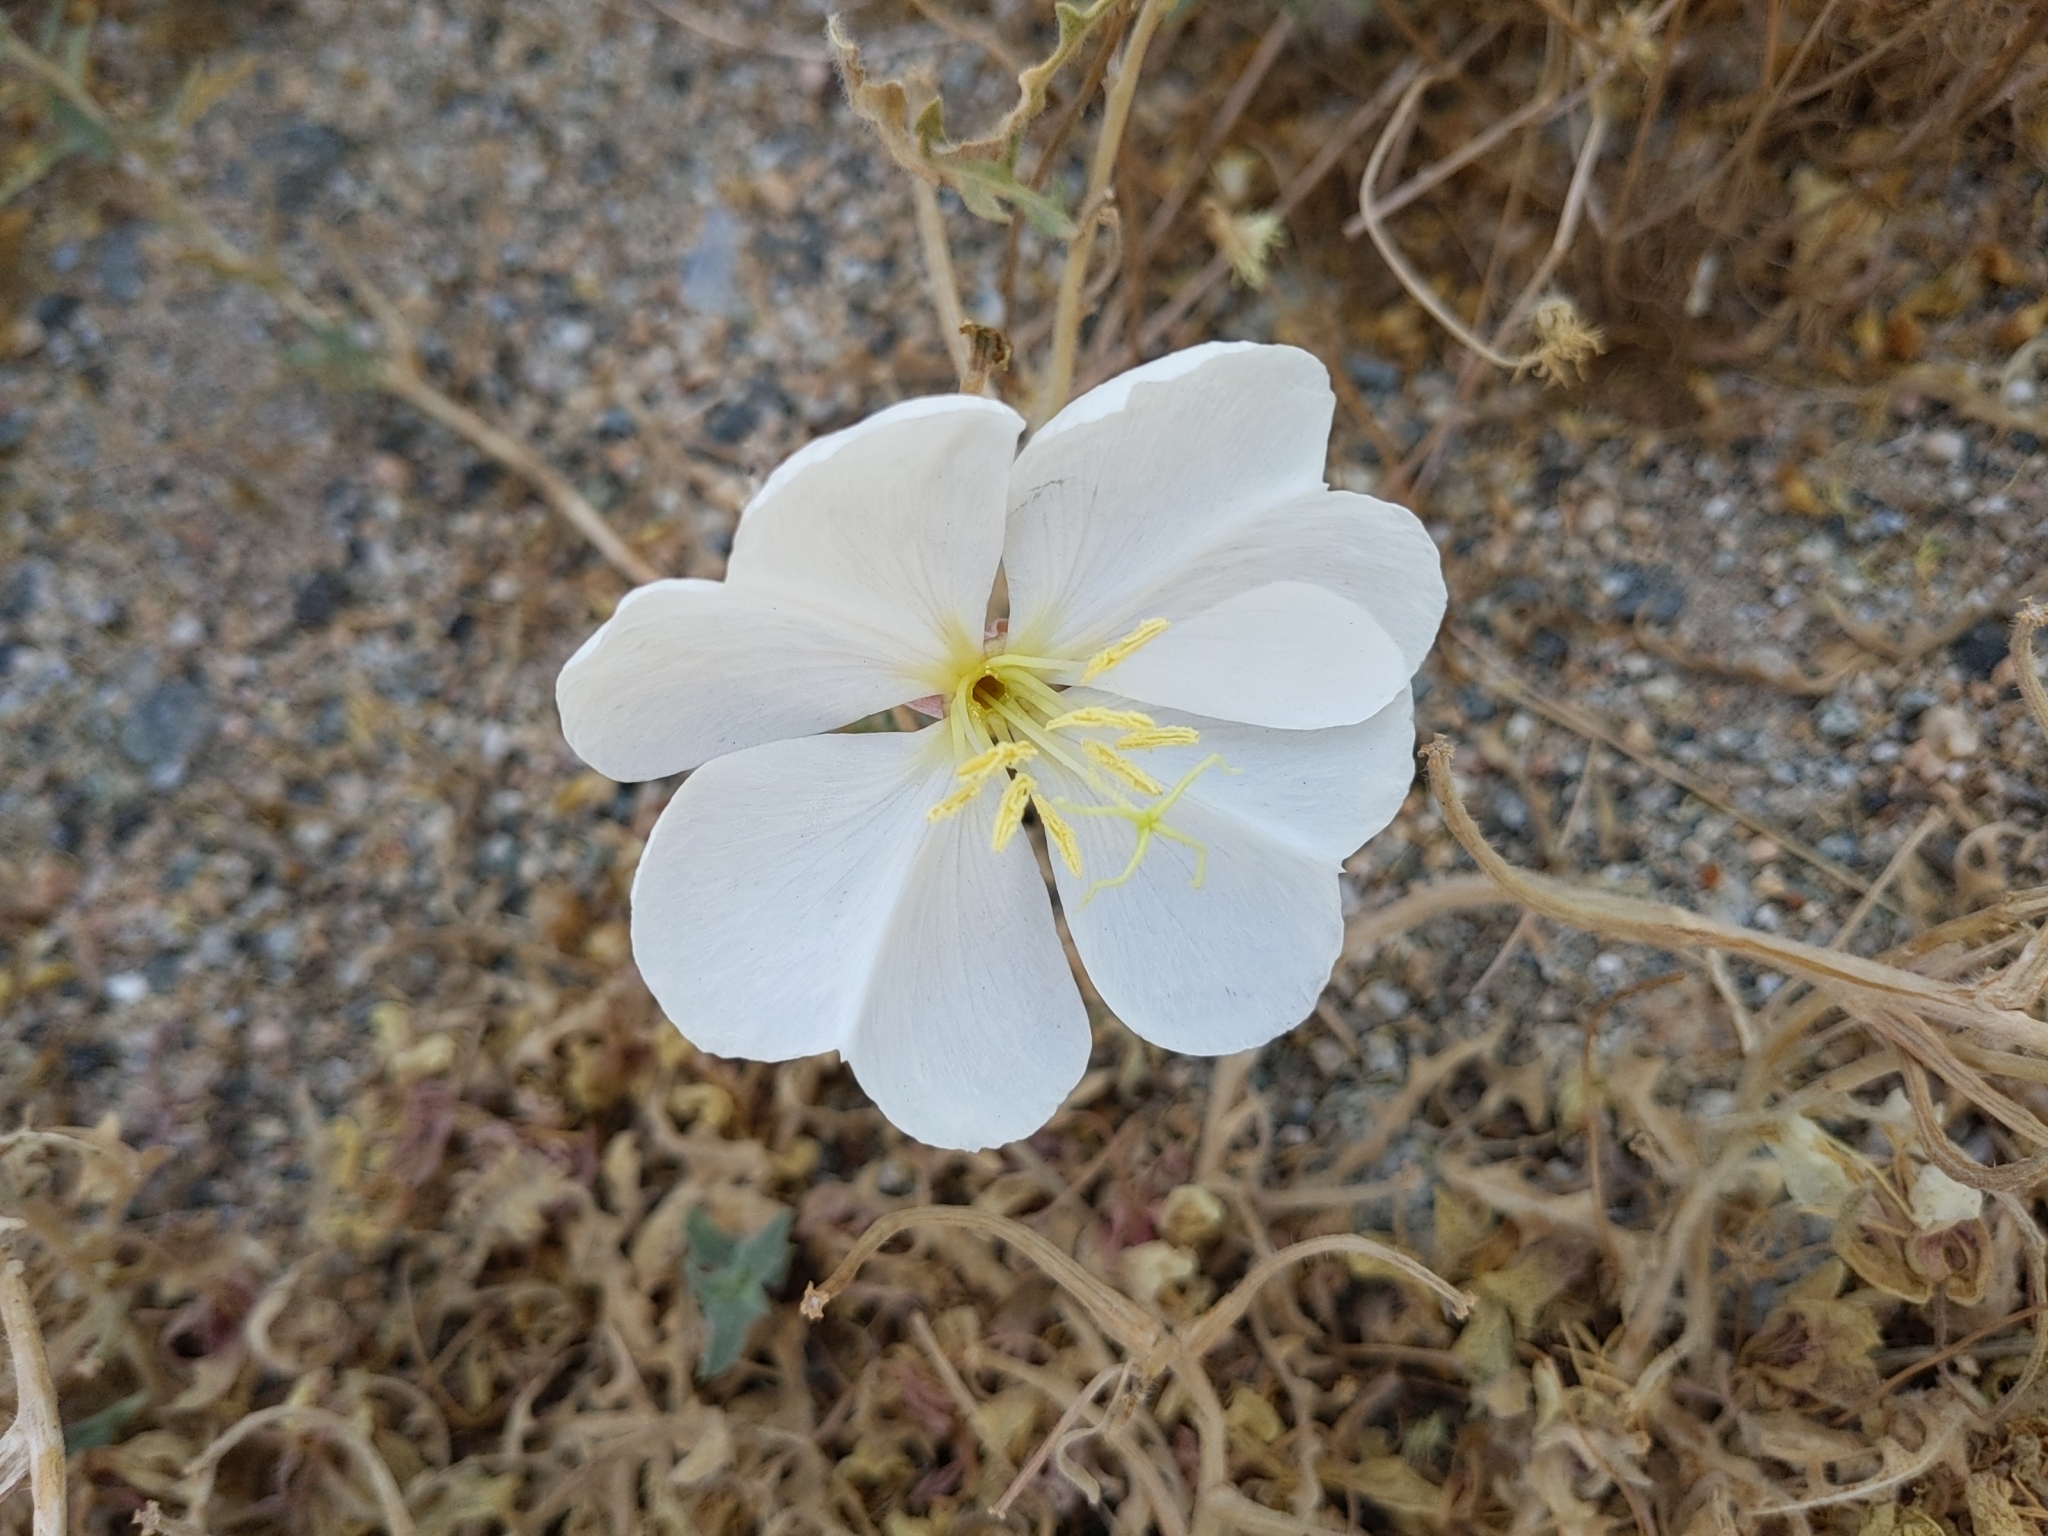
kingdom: Plantae
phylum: Tracheophyta
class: Magnoliopsida
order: Myrtales
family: Onagraceae
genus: Oenothera
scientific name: Oenothera californica
